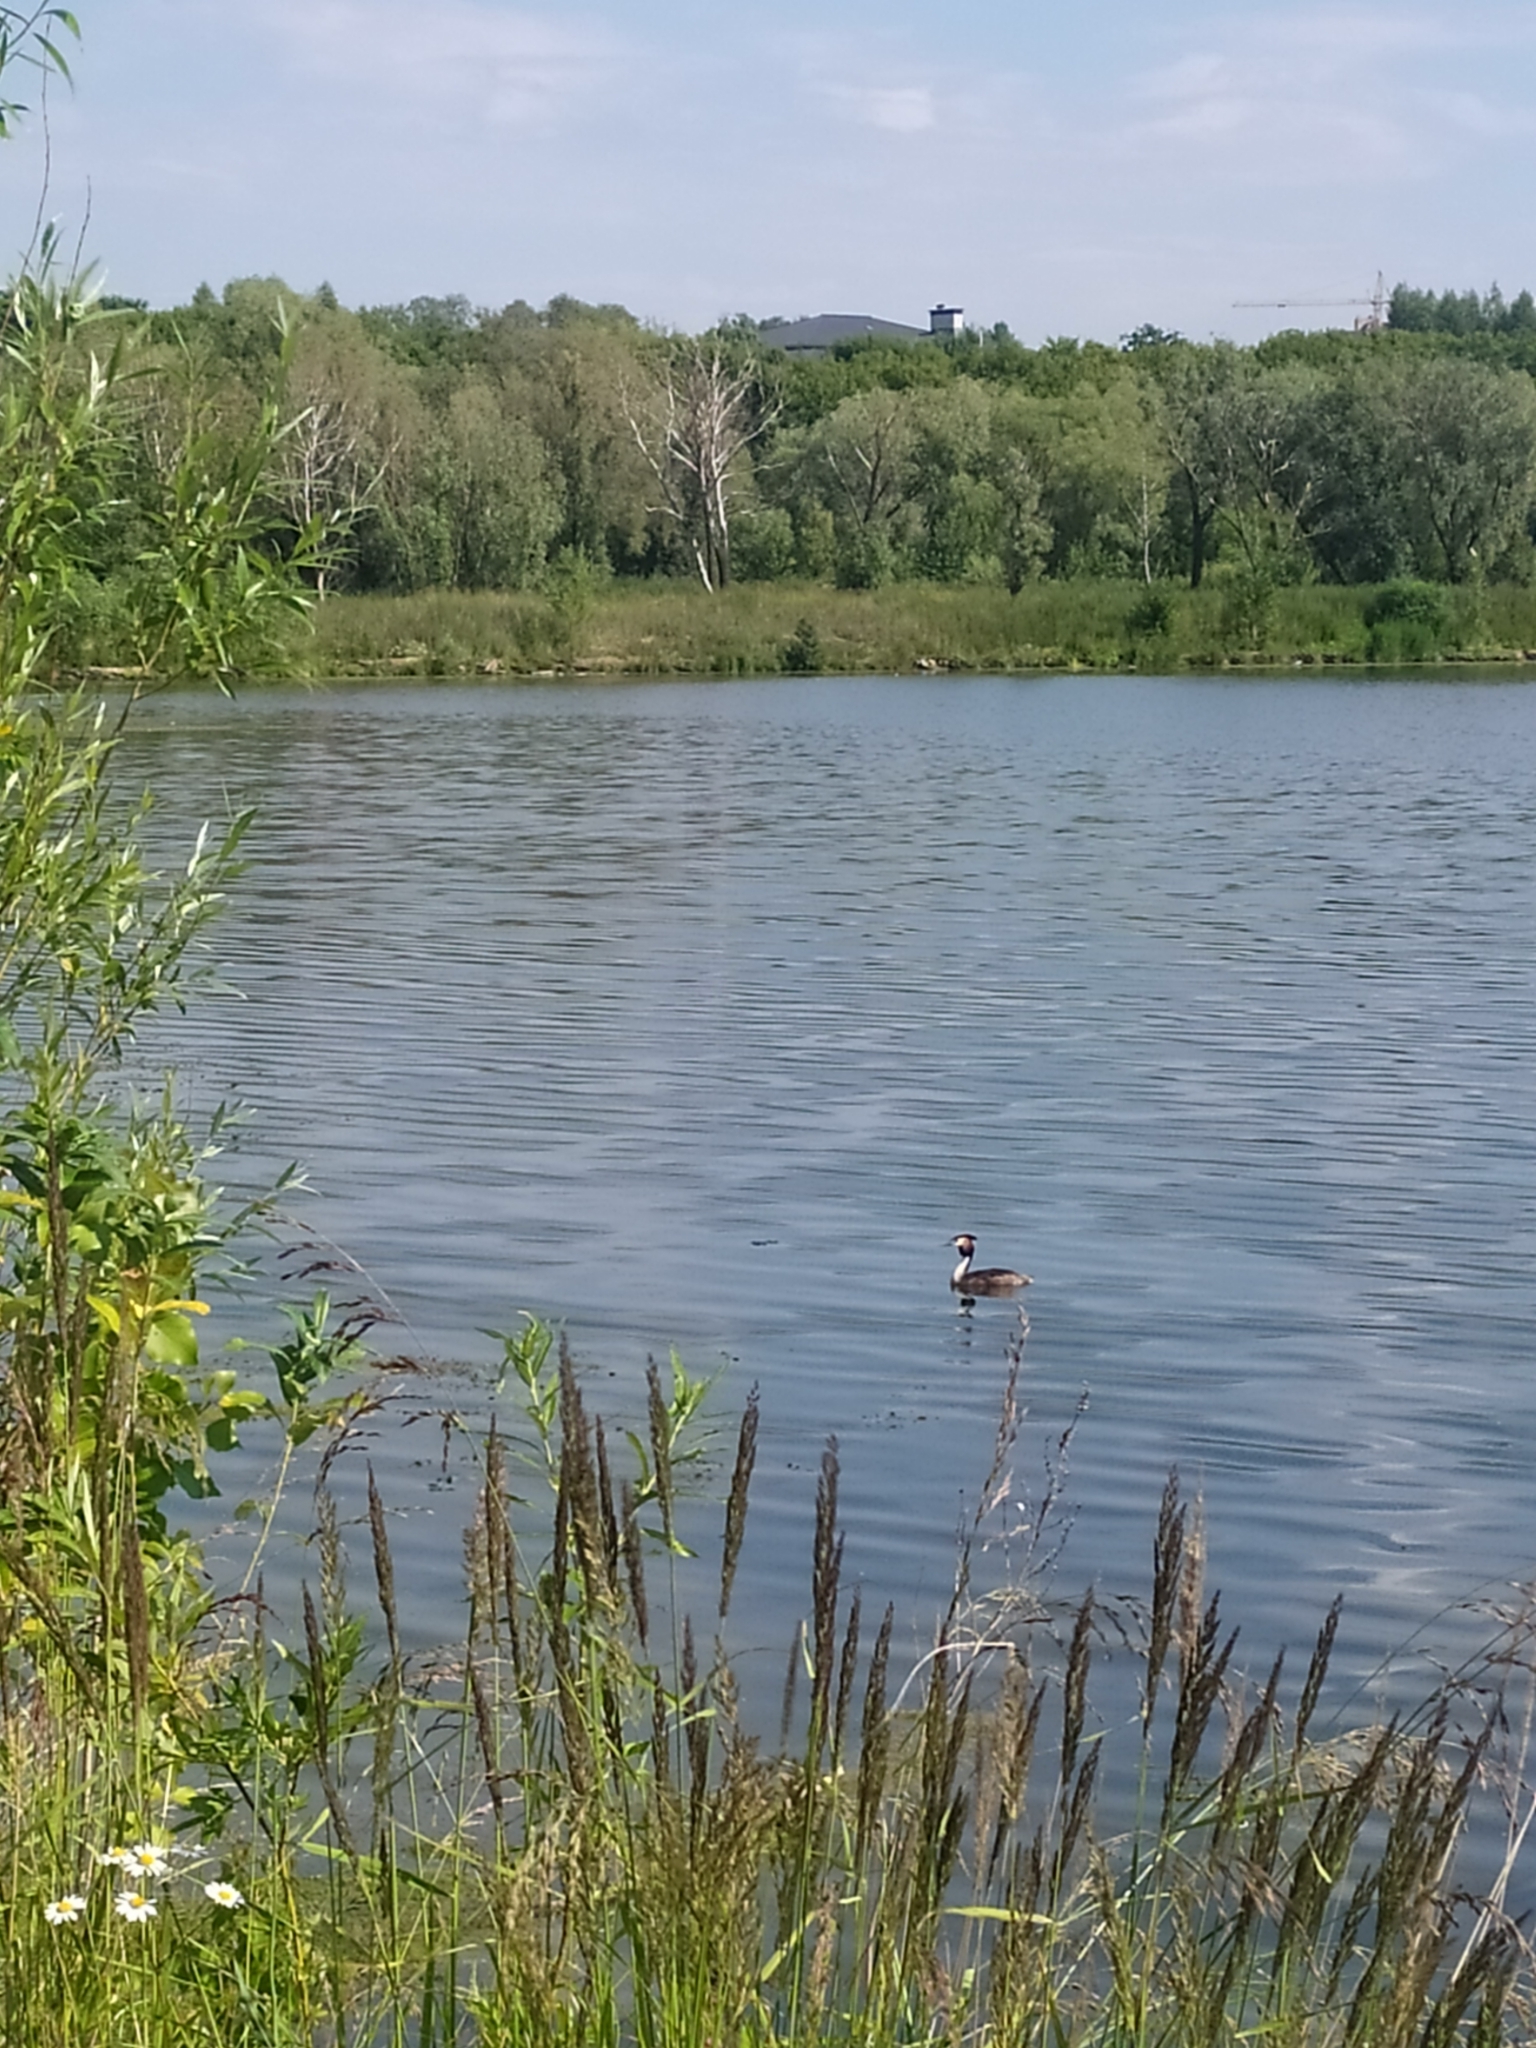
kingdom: Animalia
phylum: Chordata
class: Aves
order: Podicipediformes
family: Podicipedidae
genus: Podiceps
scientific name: Podiceps cristatus
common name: Great crested grebe
